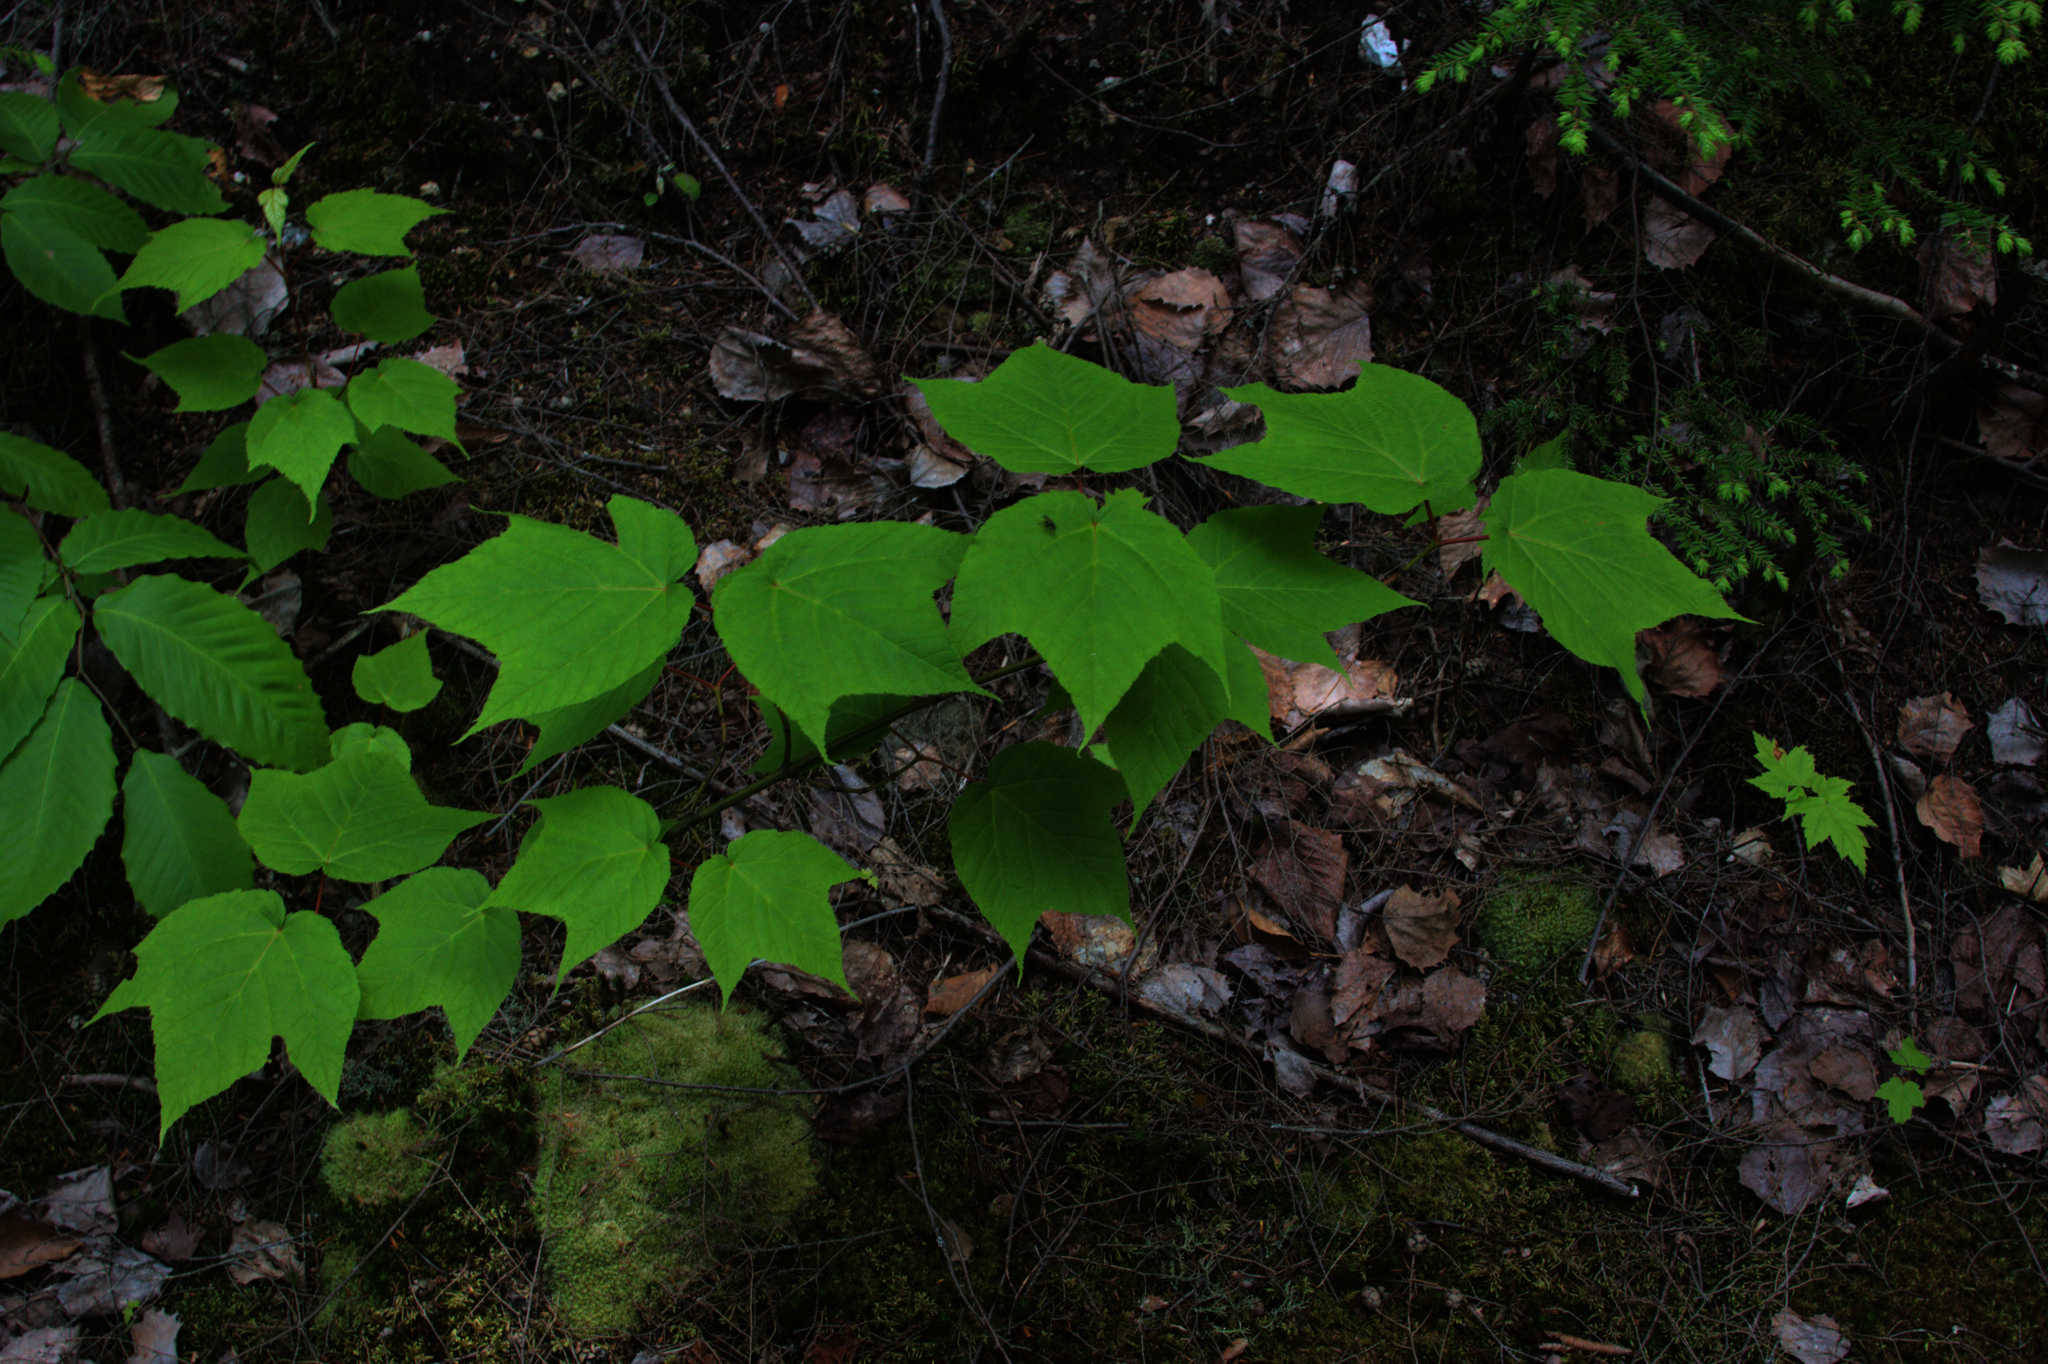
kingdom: Plantae
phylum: Tracheophyta
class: Magnoliopsida
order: Fagales
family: Fagaceae
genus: Fagus
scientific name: Fagus grandifolia
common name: American beech
